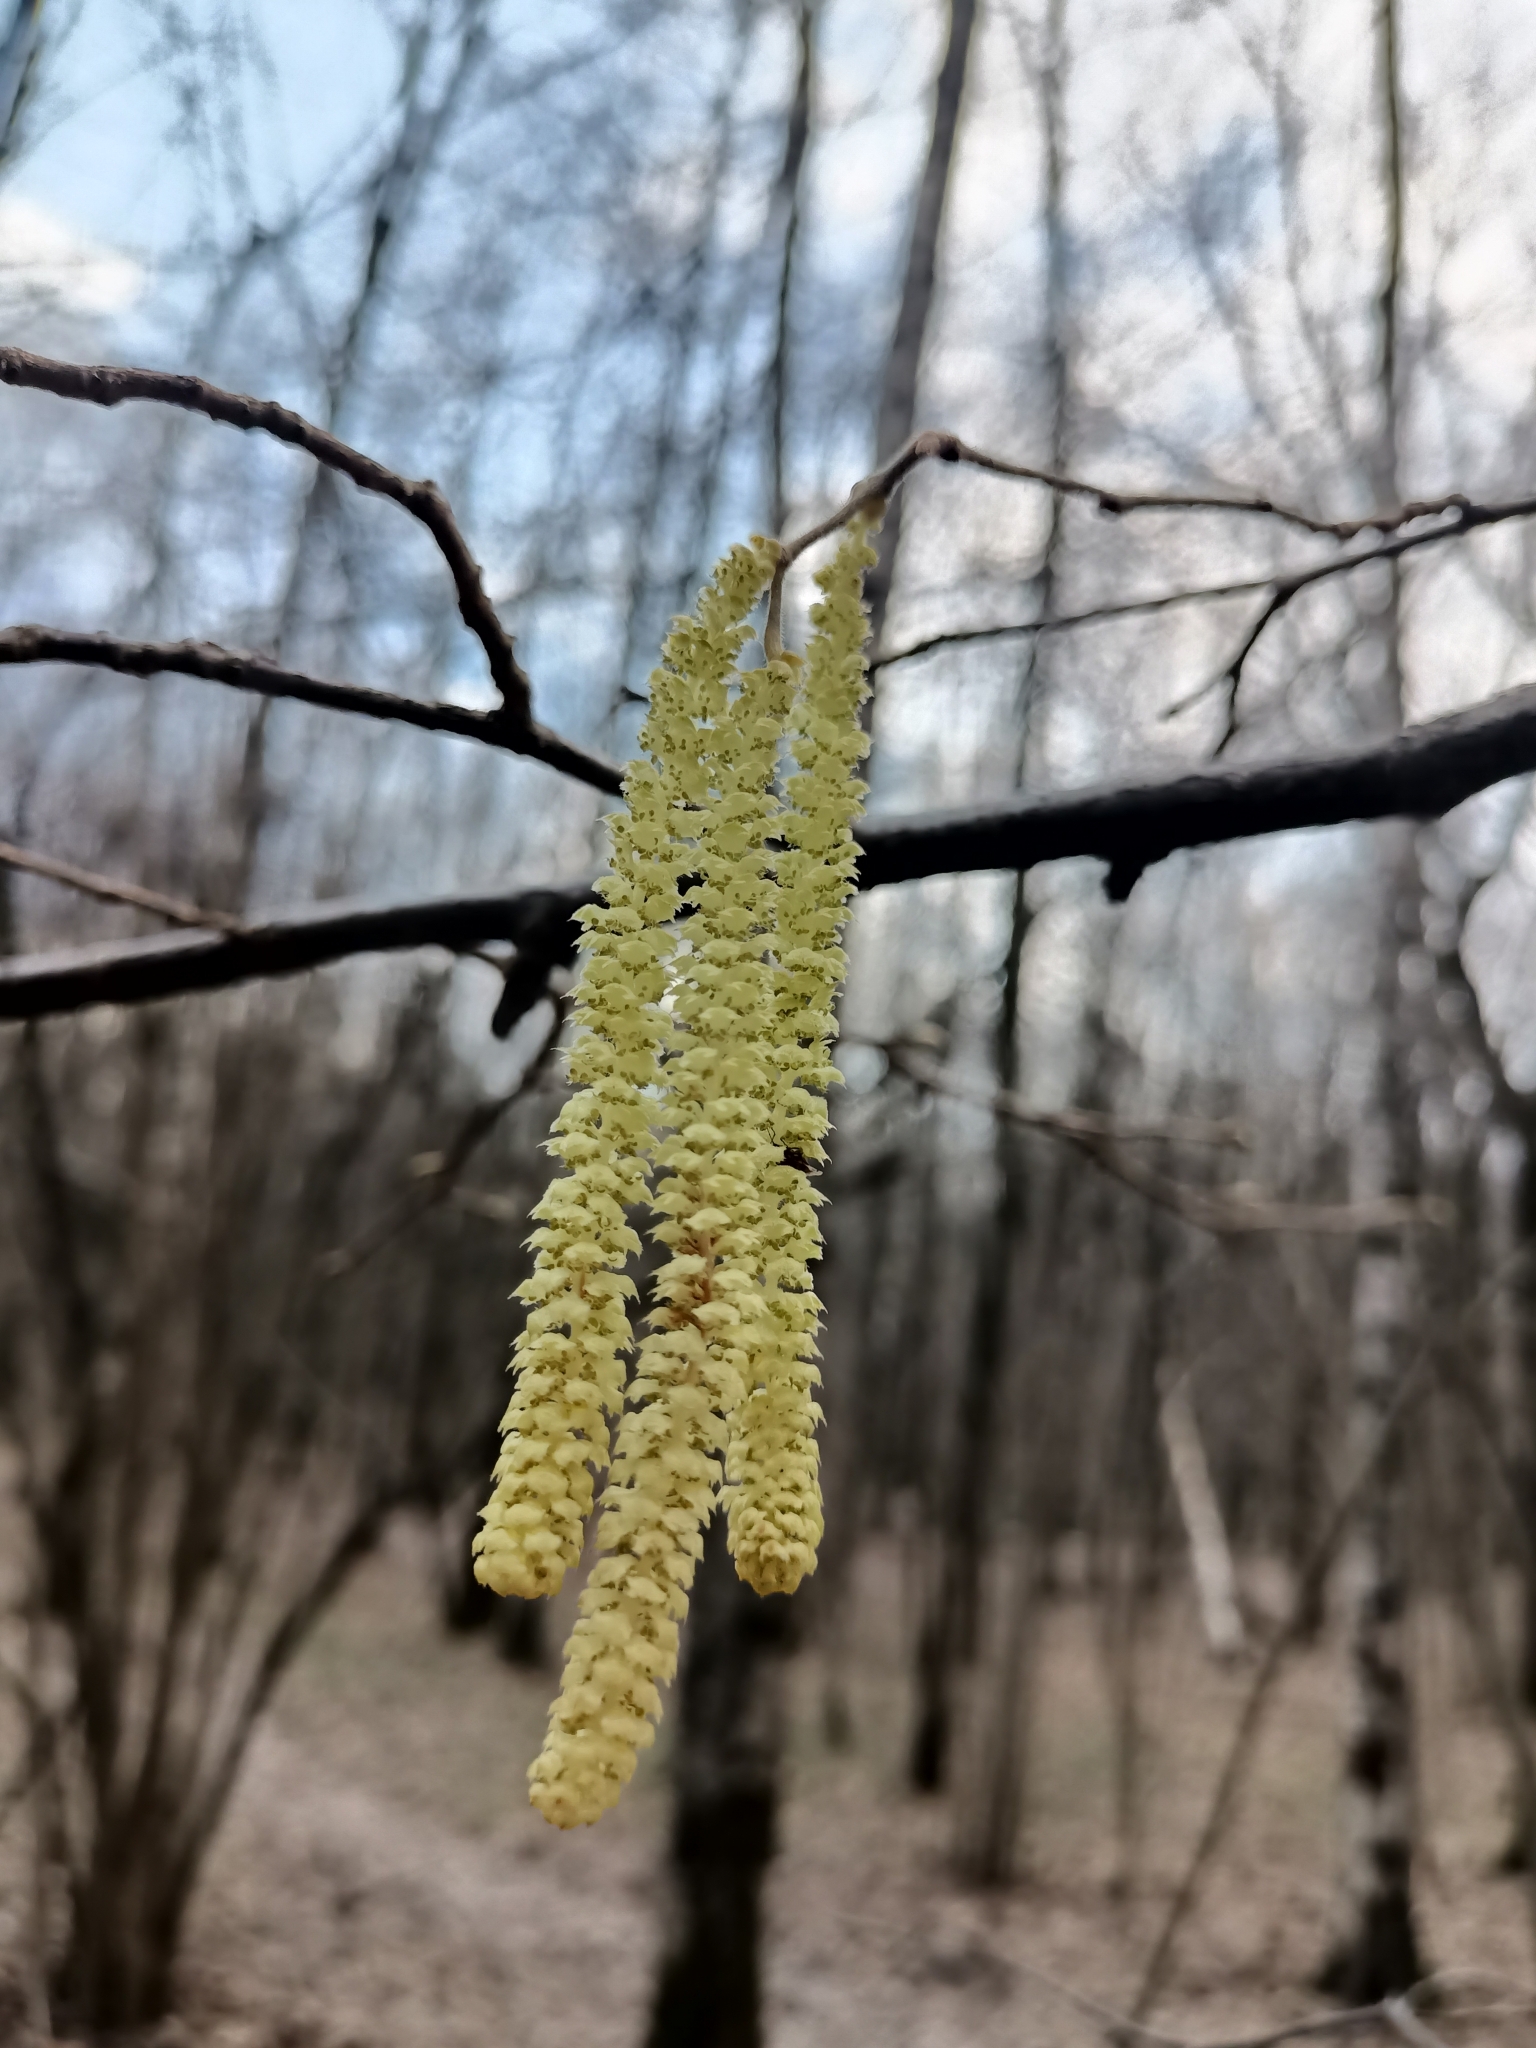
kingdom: Plantae
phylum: Tracheophyta
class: Magnoliopsida
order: Fagales
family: Betulaceae
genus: Corylus
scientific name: Corylus avellana
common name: European hazel
